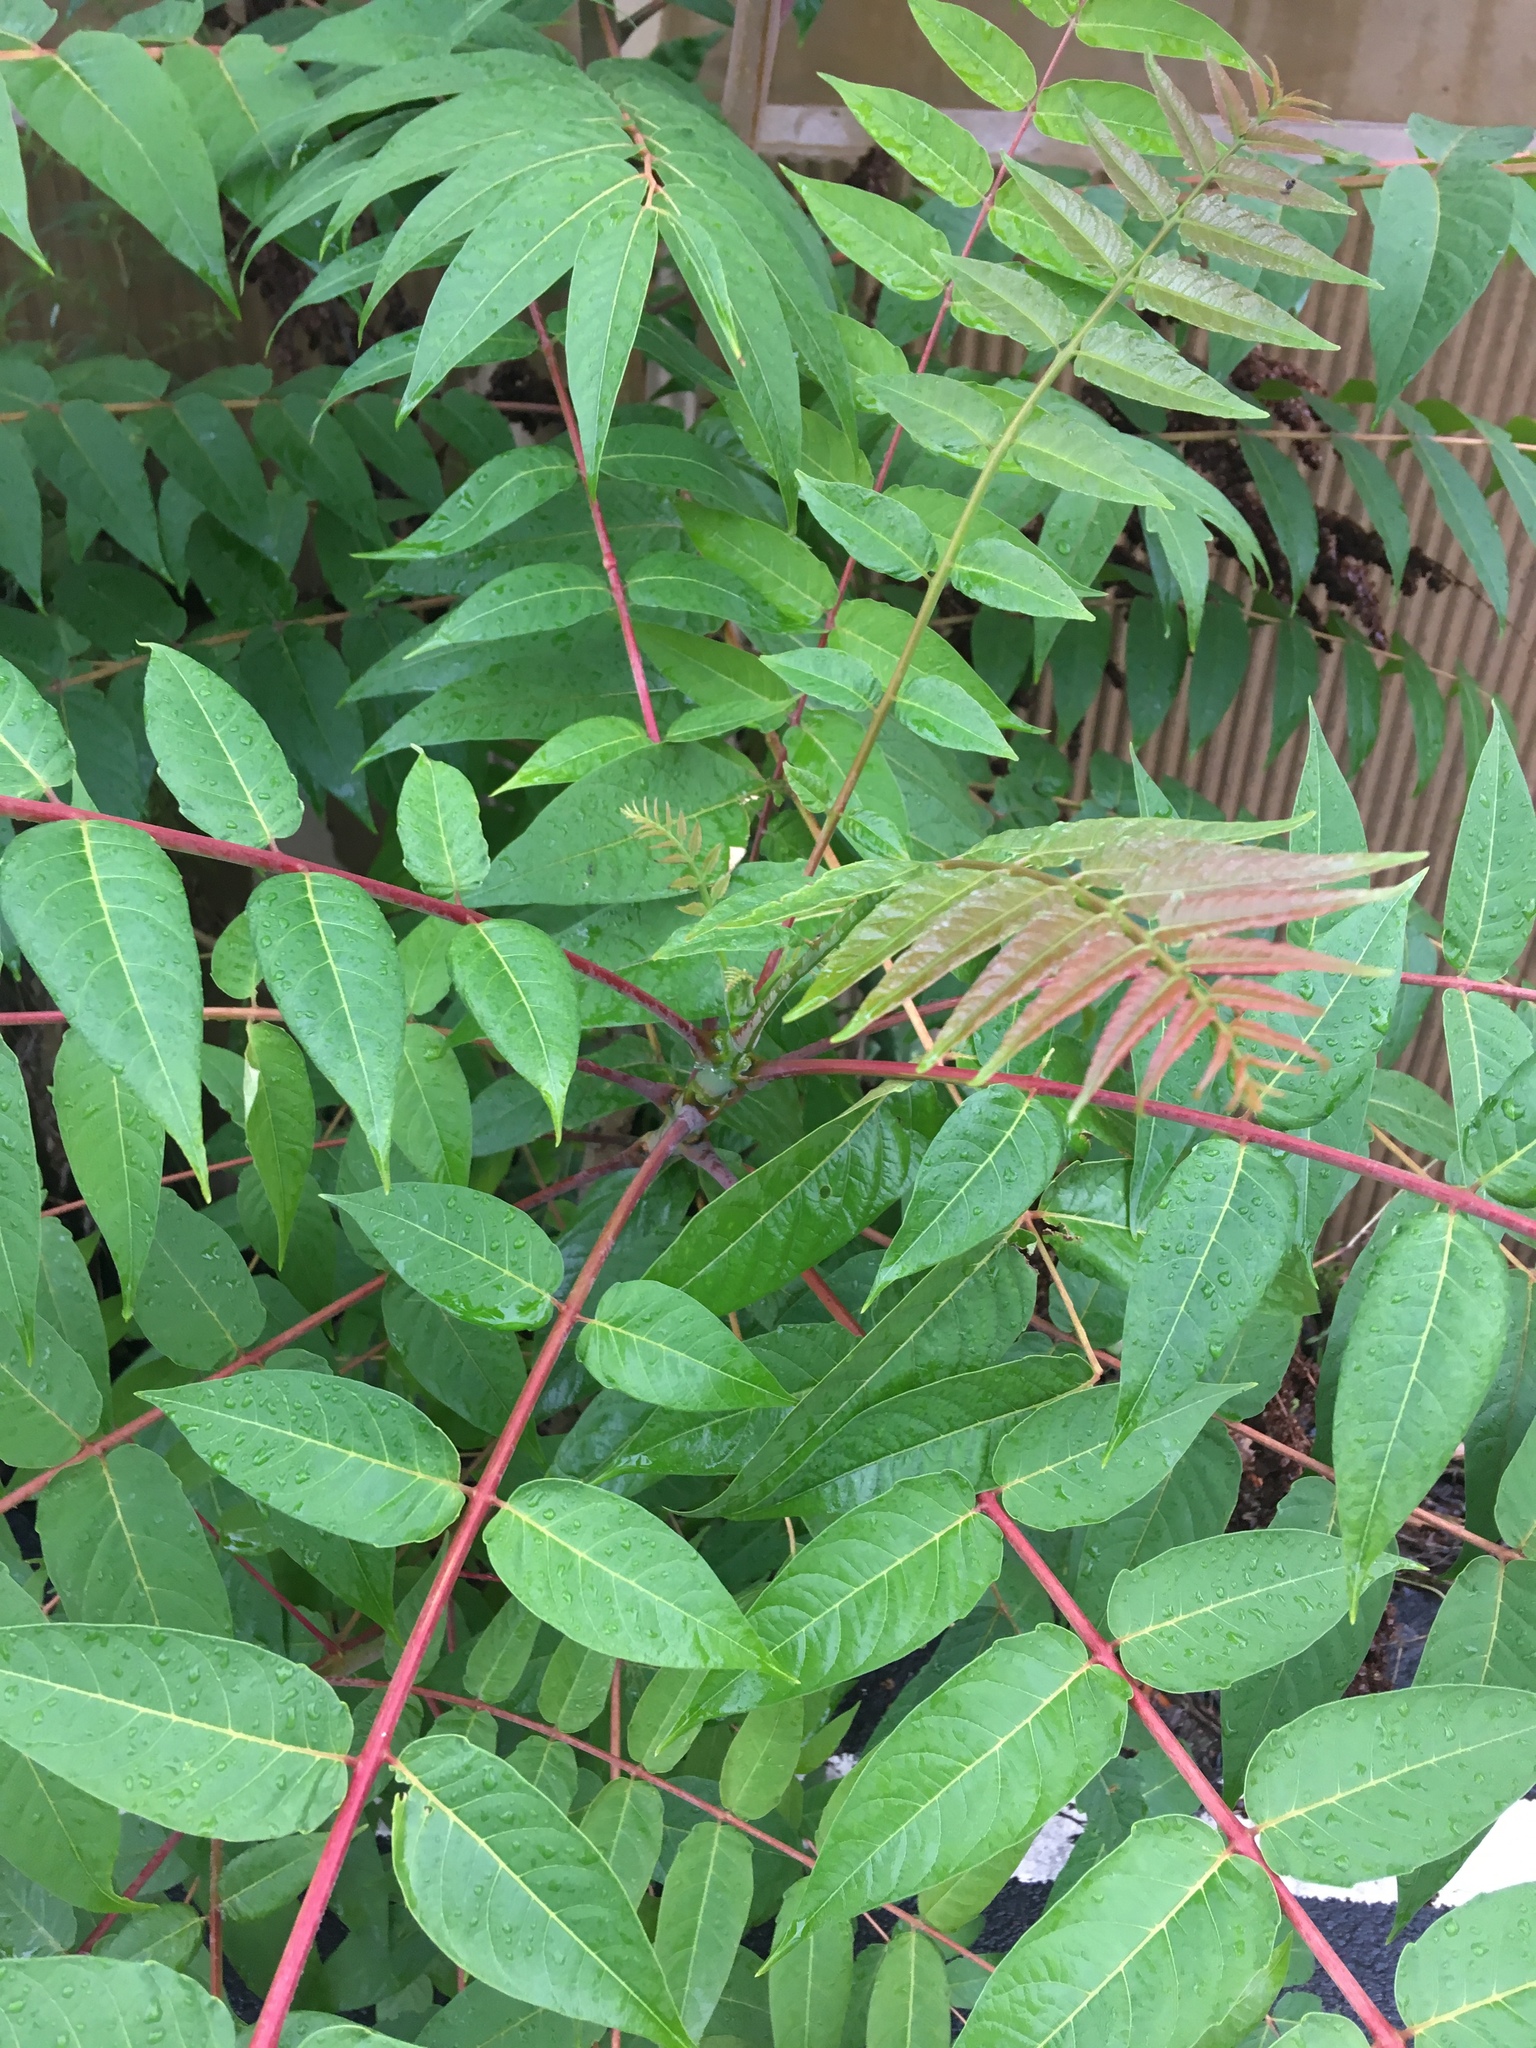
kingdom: Plantae
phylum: Tracheophyta
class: Magnoliopsida
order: Sapindales
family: Simaroubaceae
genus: Ailanthus
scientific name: Ailanthus altissima
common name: Tree-of-heaven
